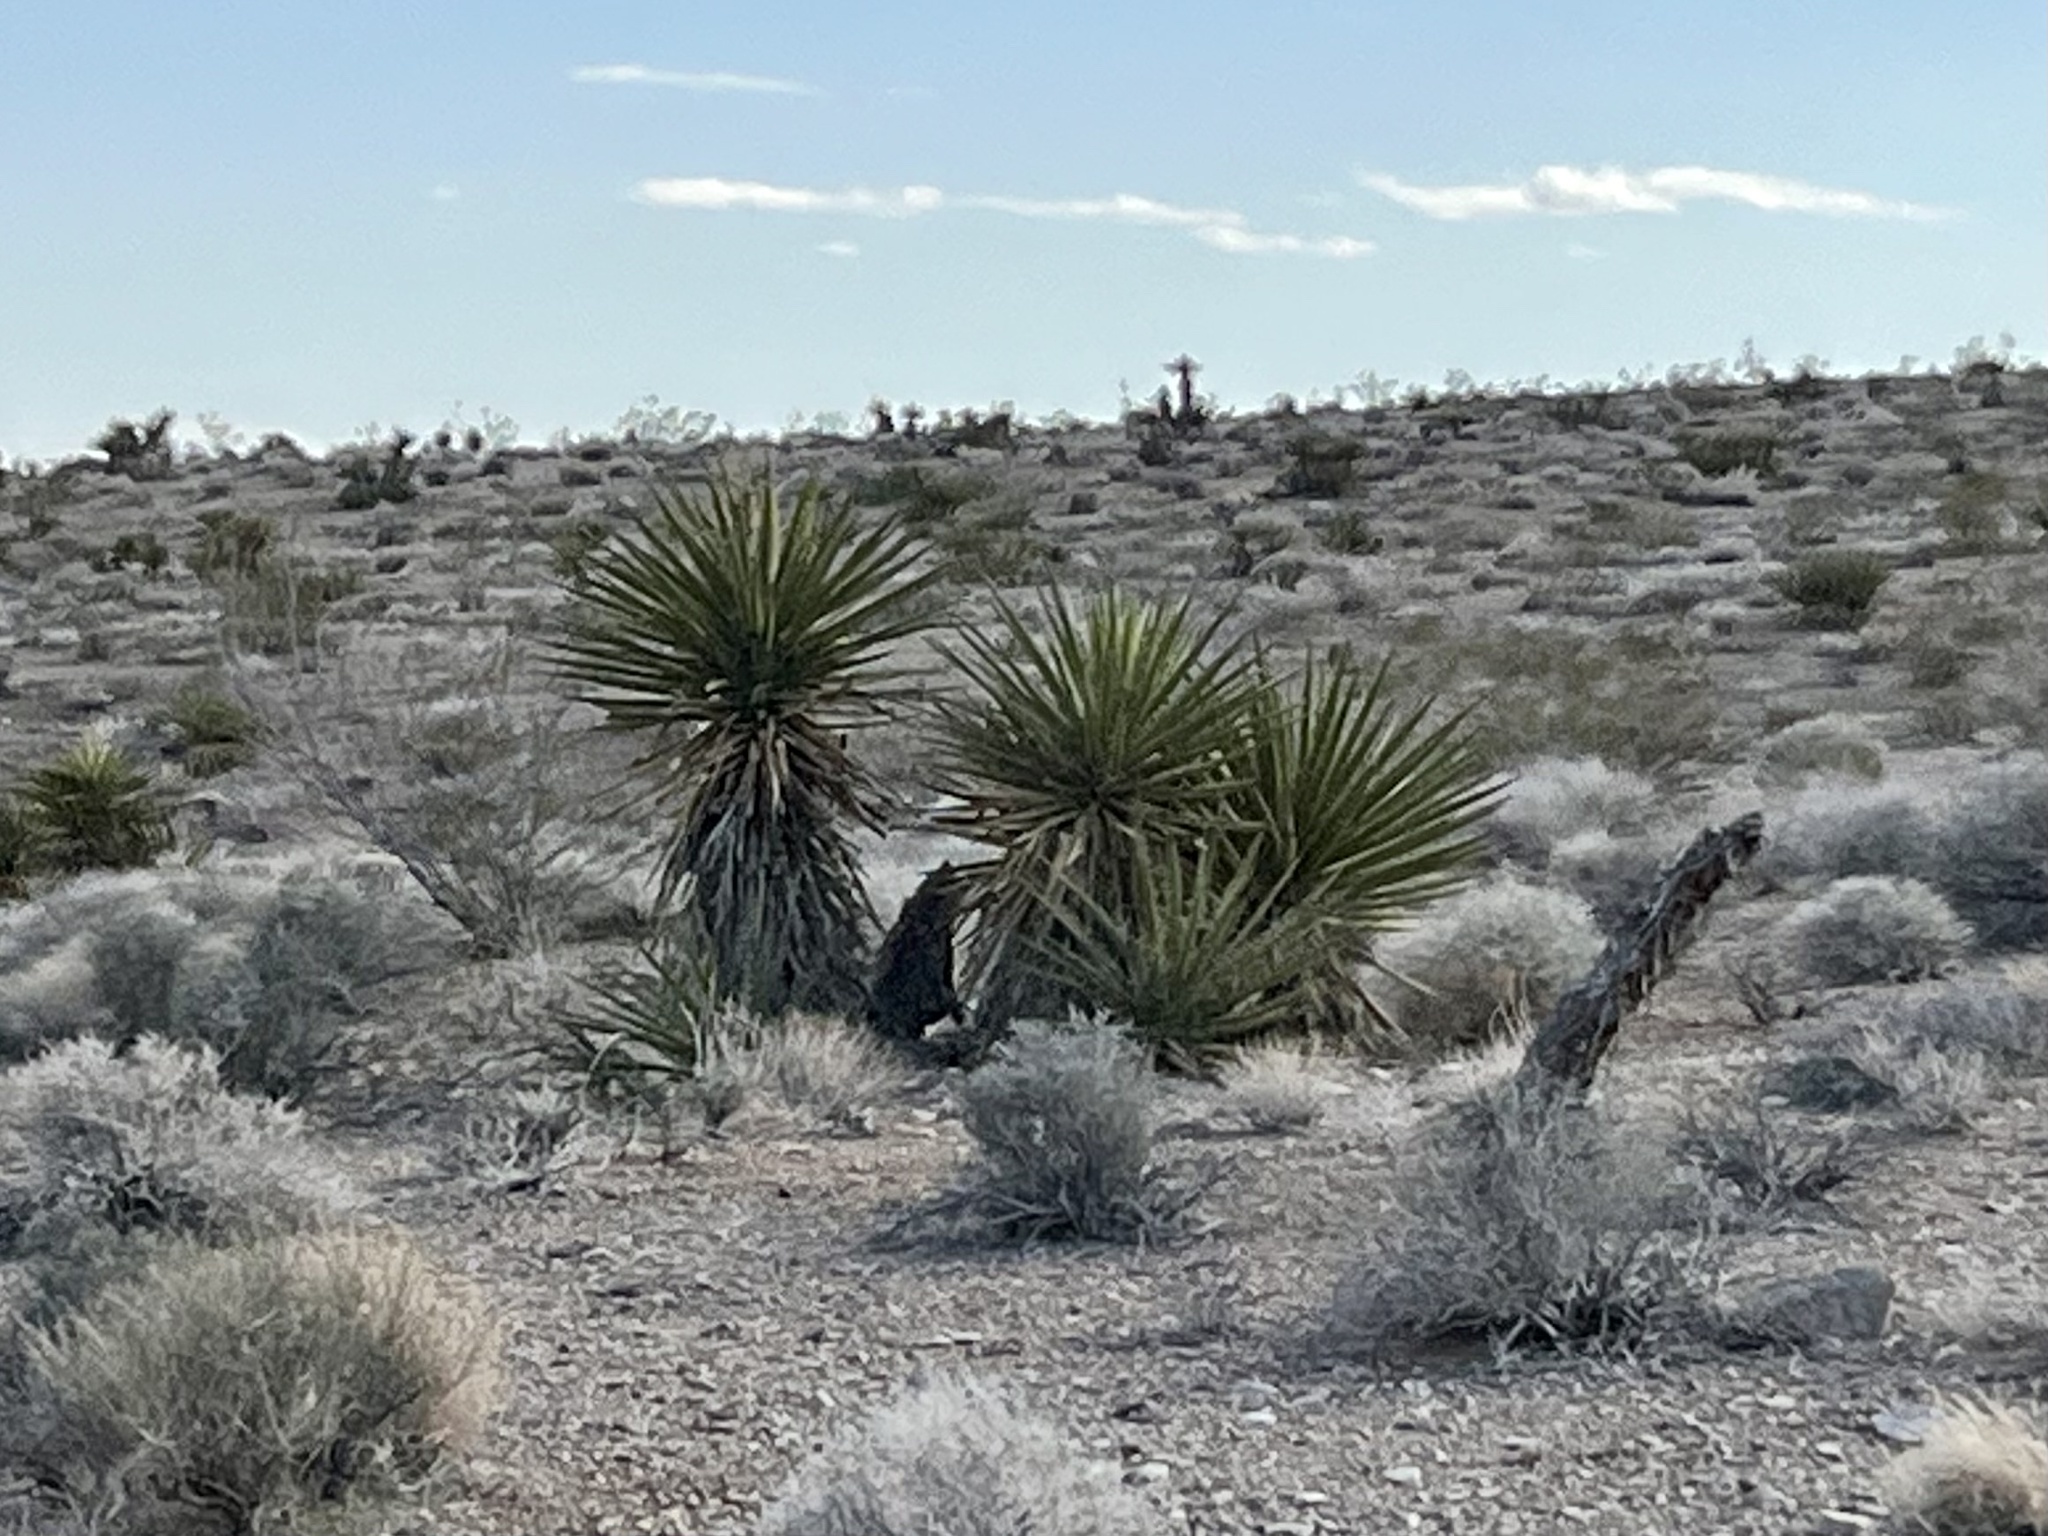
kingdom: Plantae
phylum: Tracheophyta
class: Liliopsida
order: Asparagales
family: Asparagaceae
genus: Yucca
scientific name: Yucca schidigera
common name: Mojave yucca
